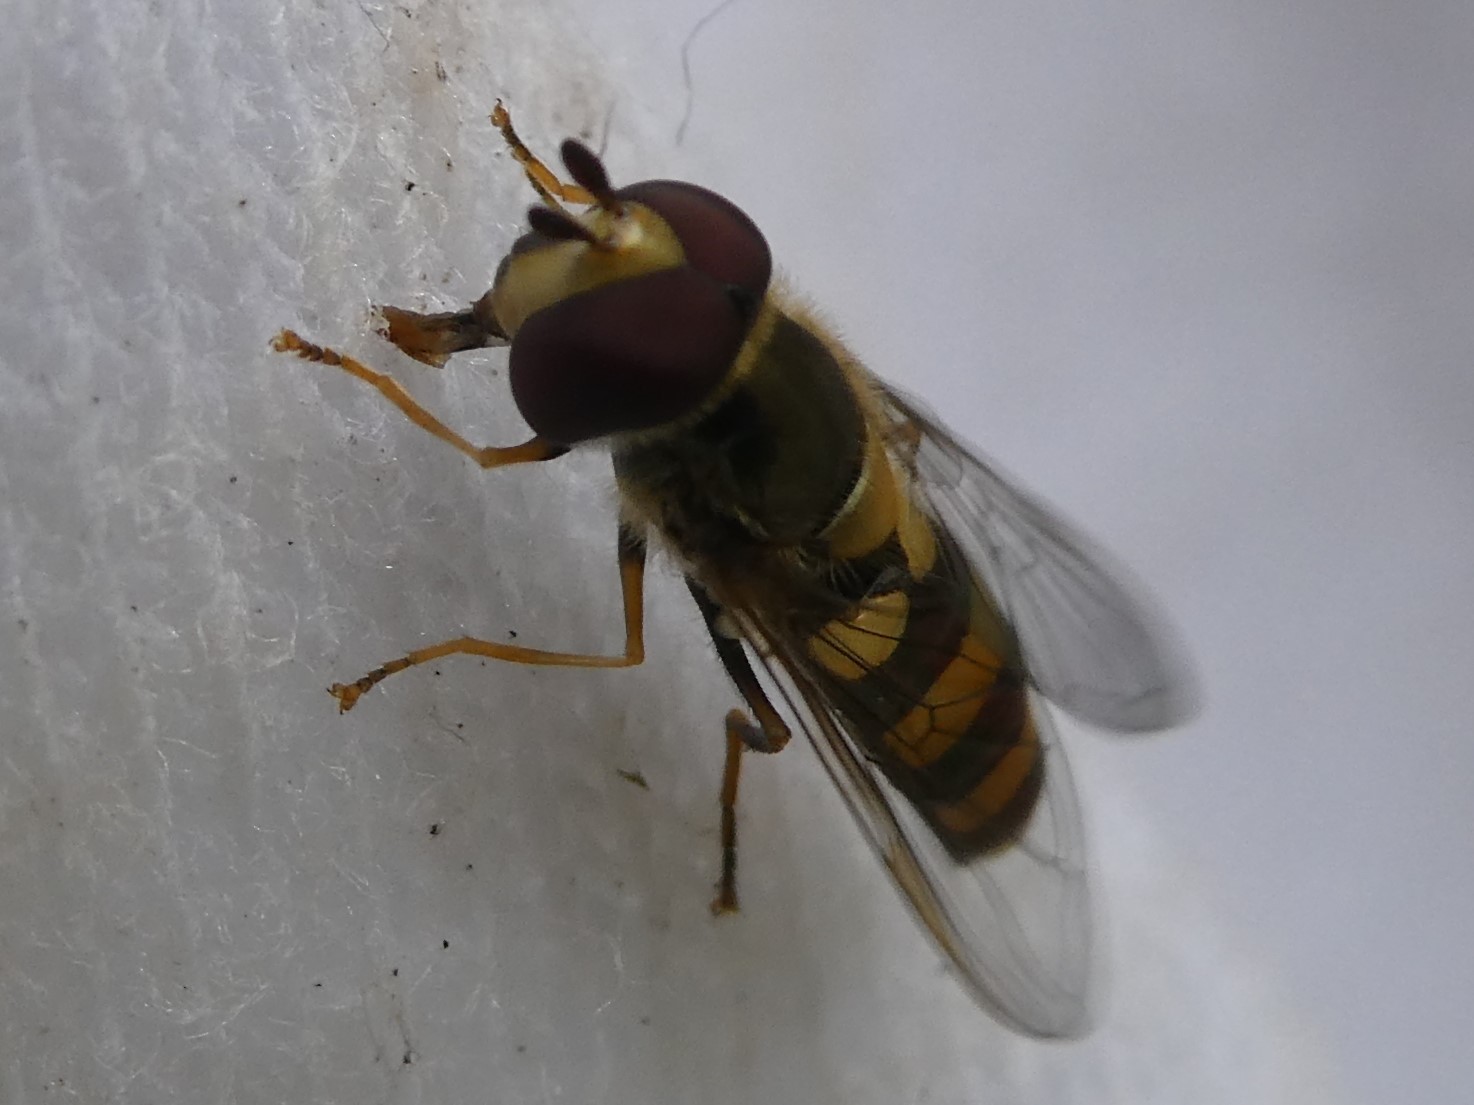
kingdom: Animalia
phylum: Arthropoda
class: Insecta
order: Diptera
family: Syrphidae
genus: Eupeodes
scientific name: Eupeodes
